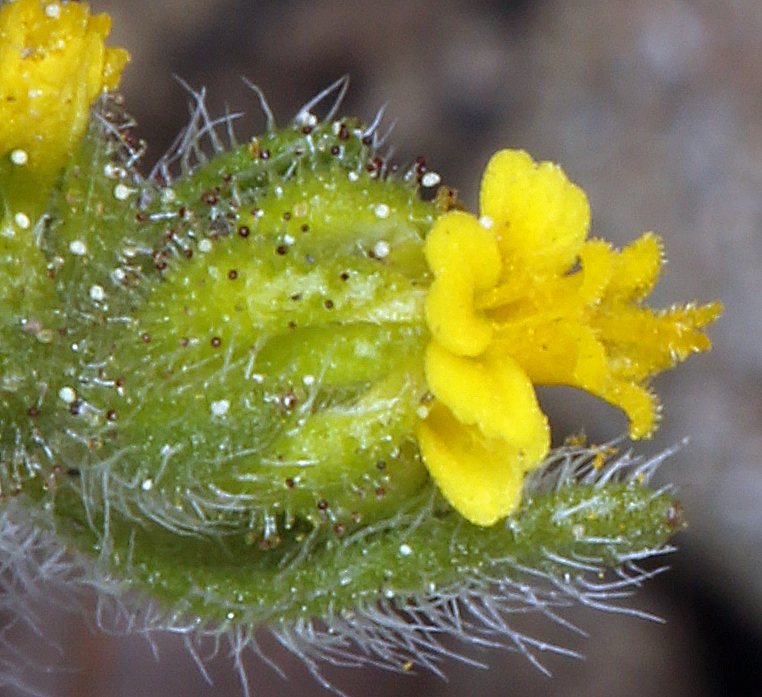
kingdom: Plantae
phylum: Tracheophyta
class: Magnoliopsida
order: Asterales
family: Asteraceae
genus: Hemizonella
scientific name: Hemizonella minima
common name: Opposite-leaved tarweed
